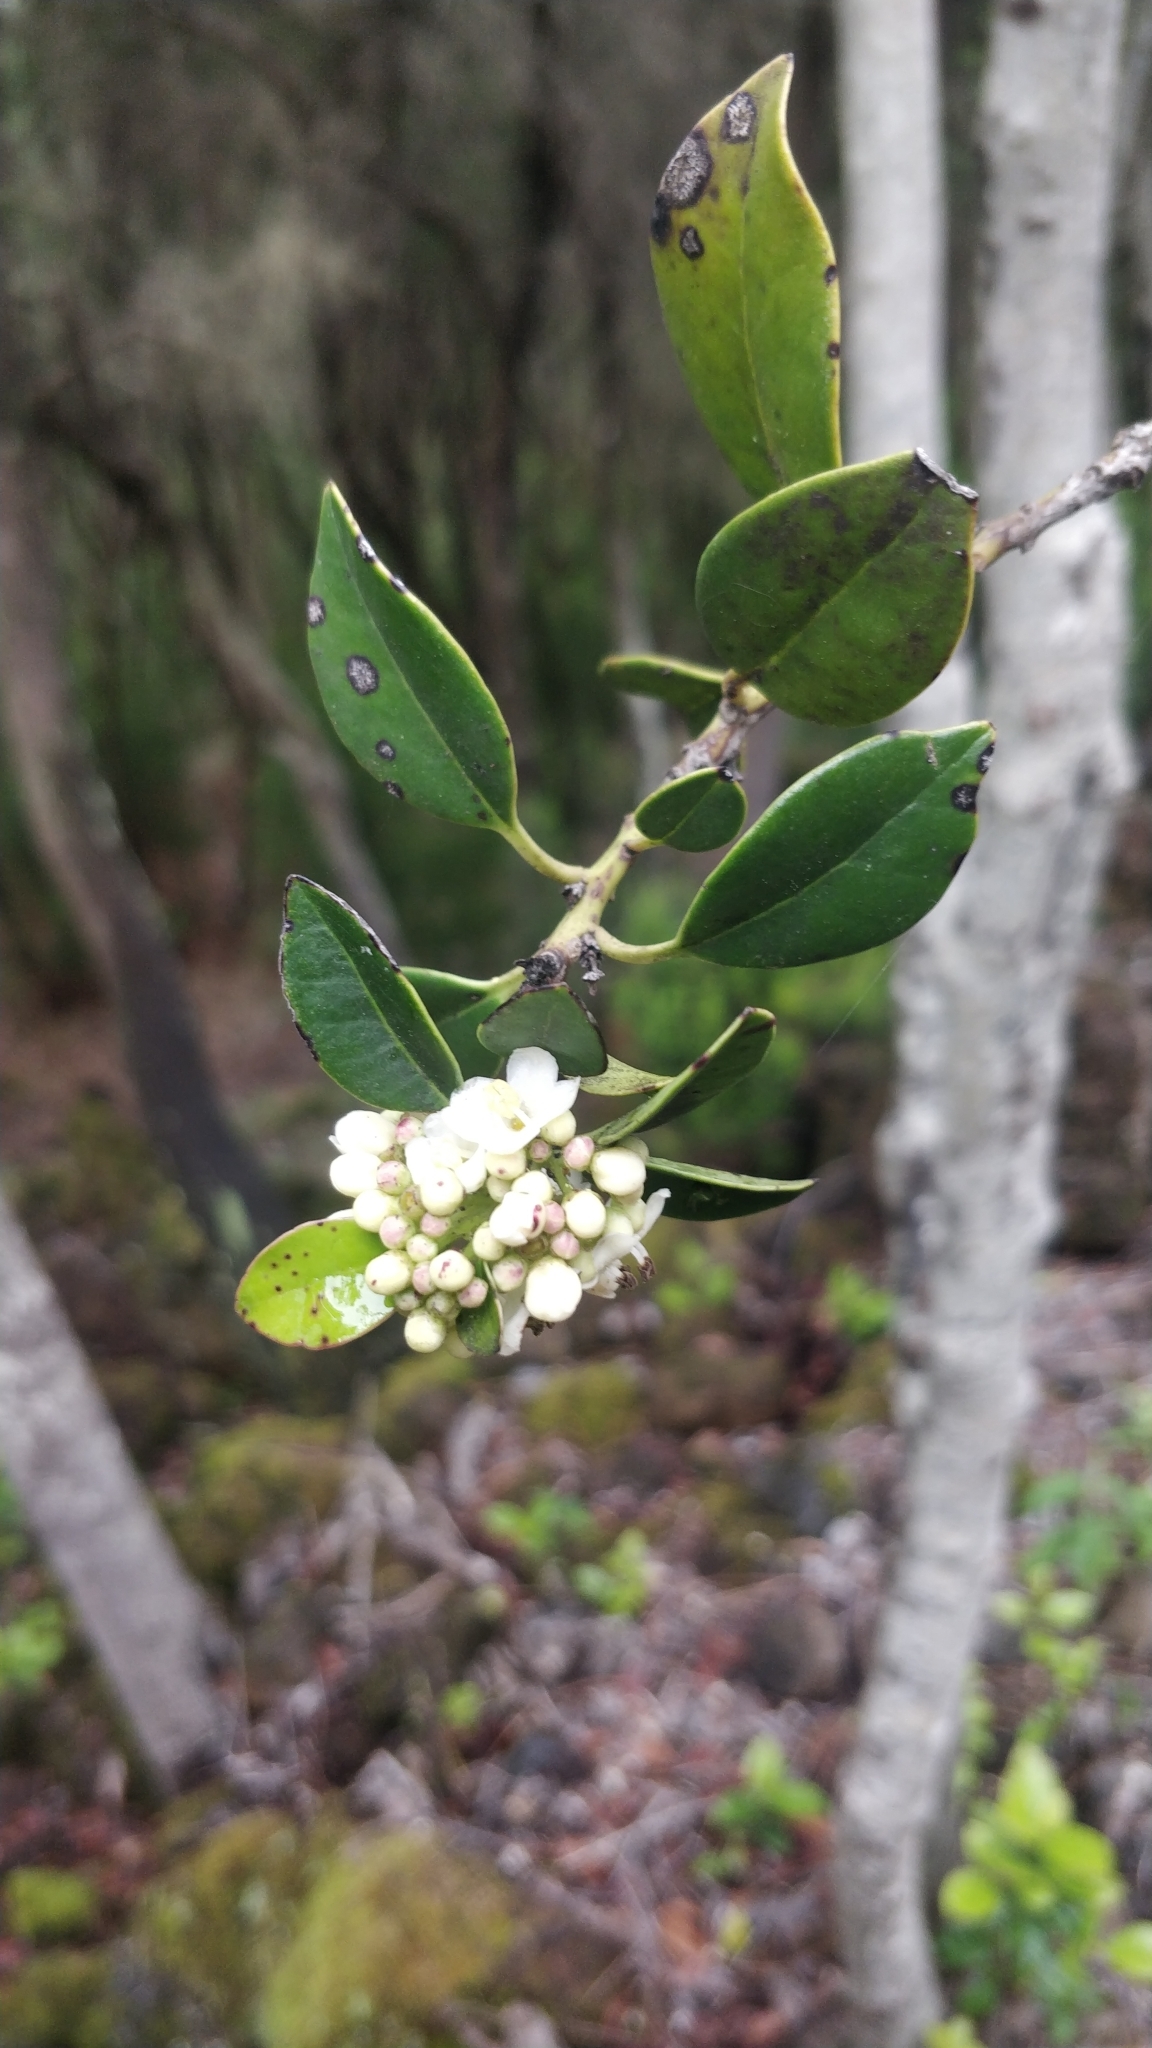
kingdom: Plantae
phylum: Tracheophyta
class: Magnoliopsida
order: Aquifoliales
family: Aquifoliaceae
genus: Ilex
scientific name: Ilex canariensis
